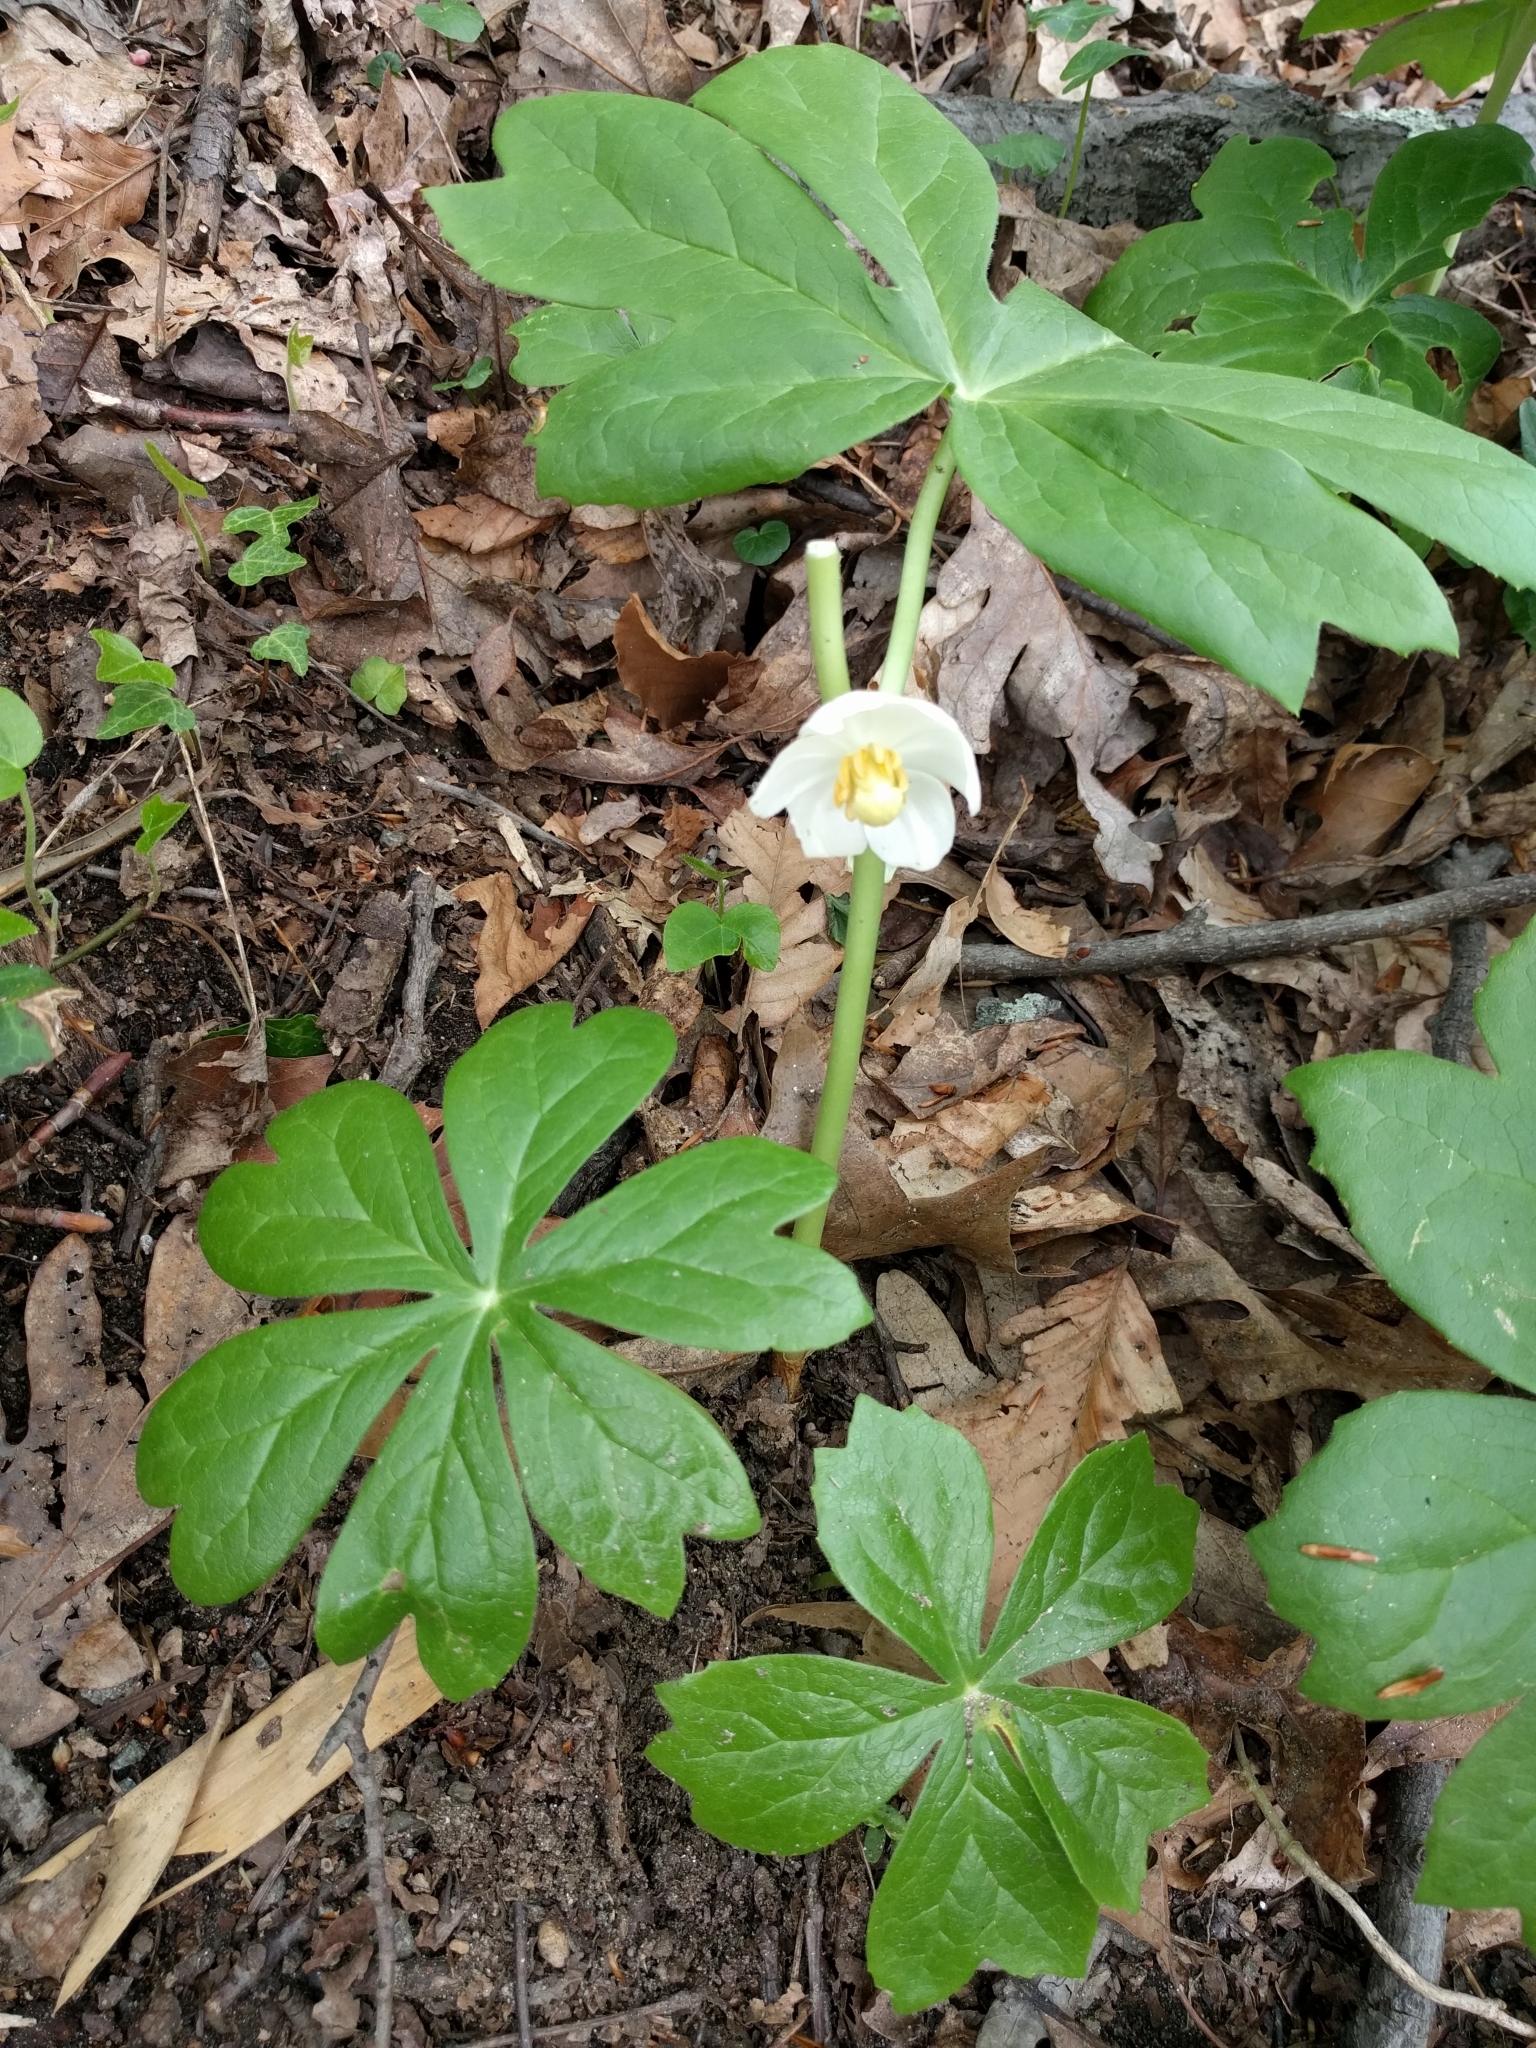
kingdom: Plantae
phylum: Tracheophyta
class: Magnoliopsida
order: Ranunculales
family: Berberidaceae
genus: Podophyllum
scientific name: Podophyllum peltatum
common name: Wild mandrake
